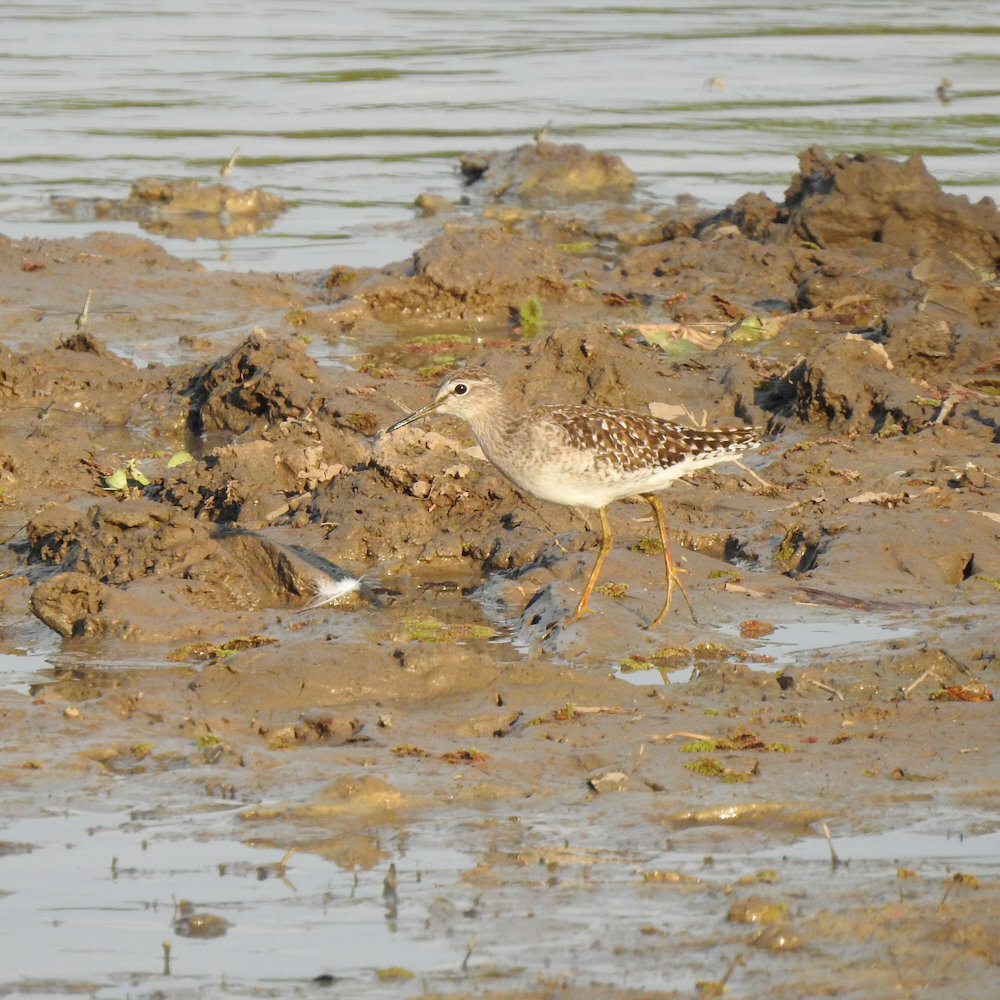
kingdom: Animalia
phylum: Chordata
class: Aves
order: Charadriiformes
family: Scolopacidae
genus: Tringa
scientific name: Tringa glareola
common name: Wood sandpiper
